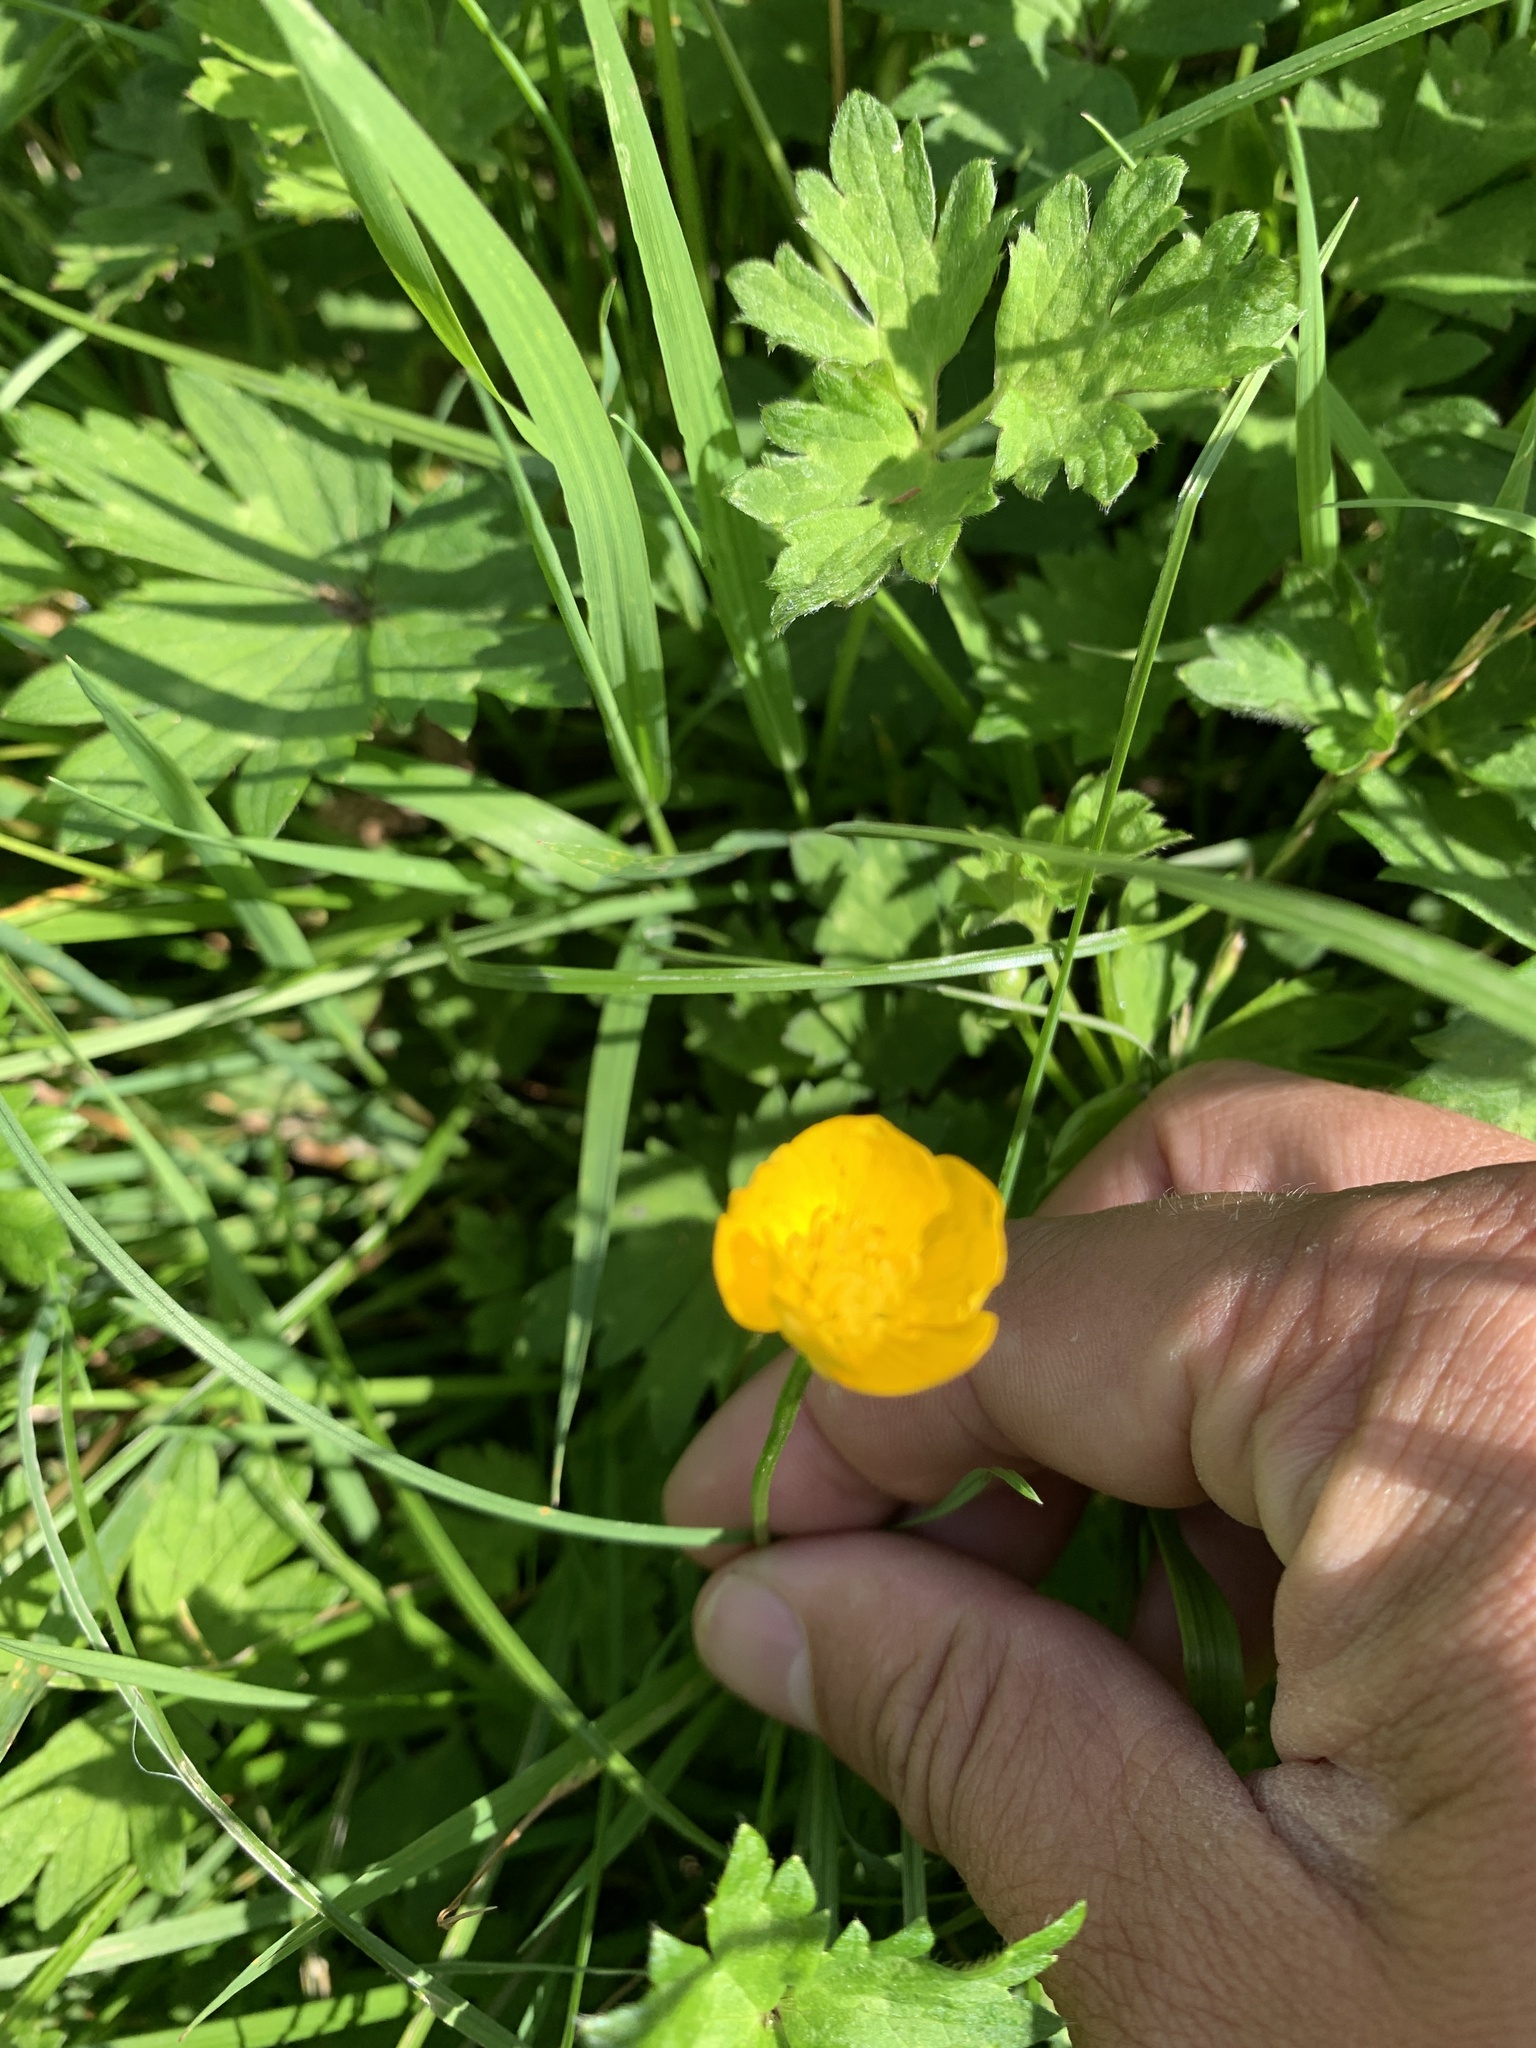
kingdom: Plantae
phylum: Tracheophyta
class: Magnoliopsida
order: Ranunculales
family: Ranunculaceae
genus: Ranunculus
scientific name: Ranunculus repens
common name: Creeping buttercup
